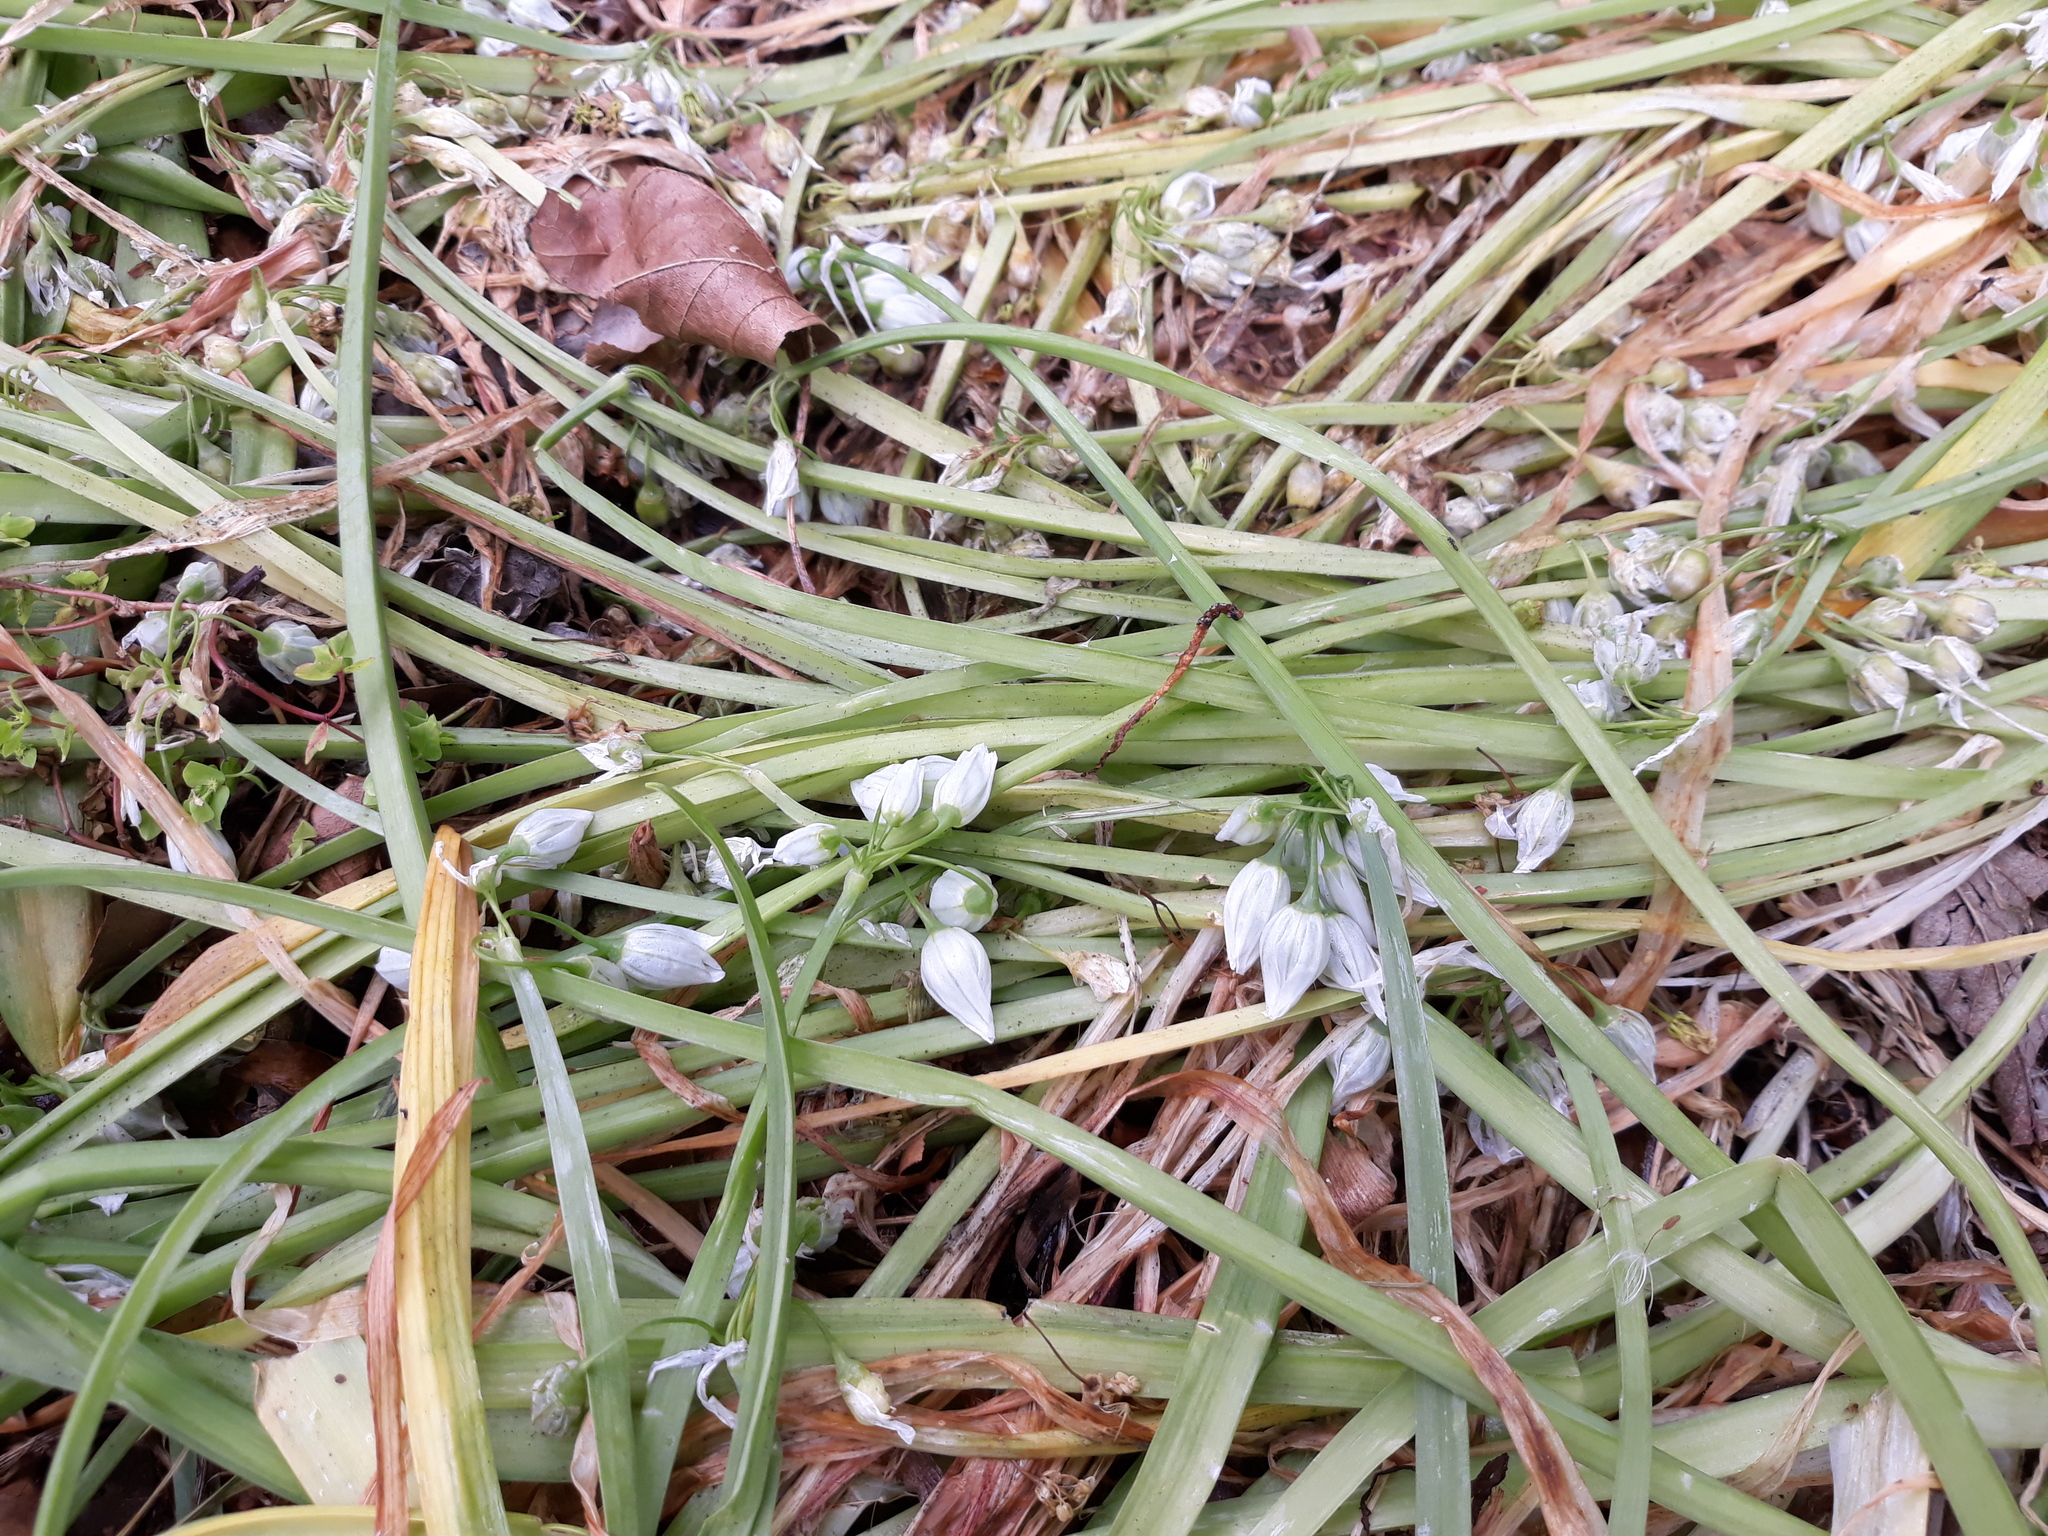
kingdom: Plantae
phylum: Tracheophyta
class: Liliopsida
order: Asparagales
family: Amaryllidaceae
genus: Allium
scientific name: Allium triquetrum
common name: Three-cornered garlic
